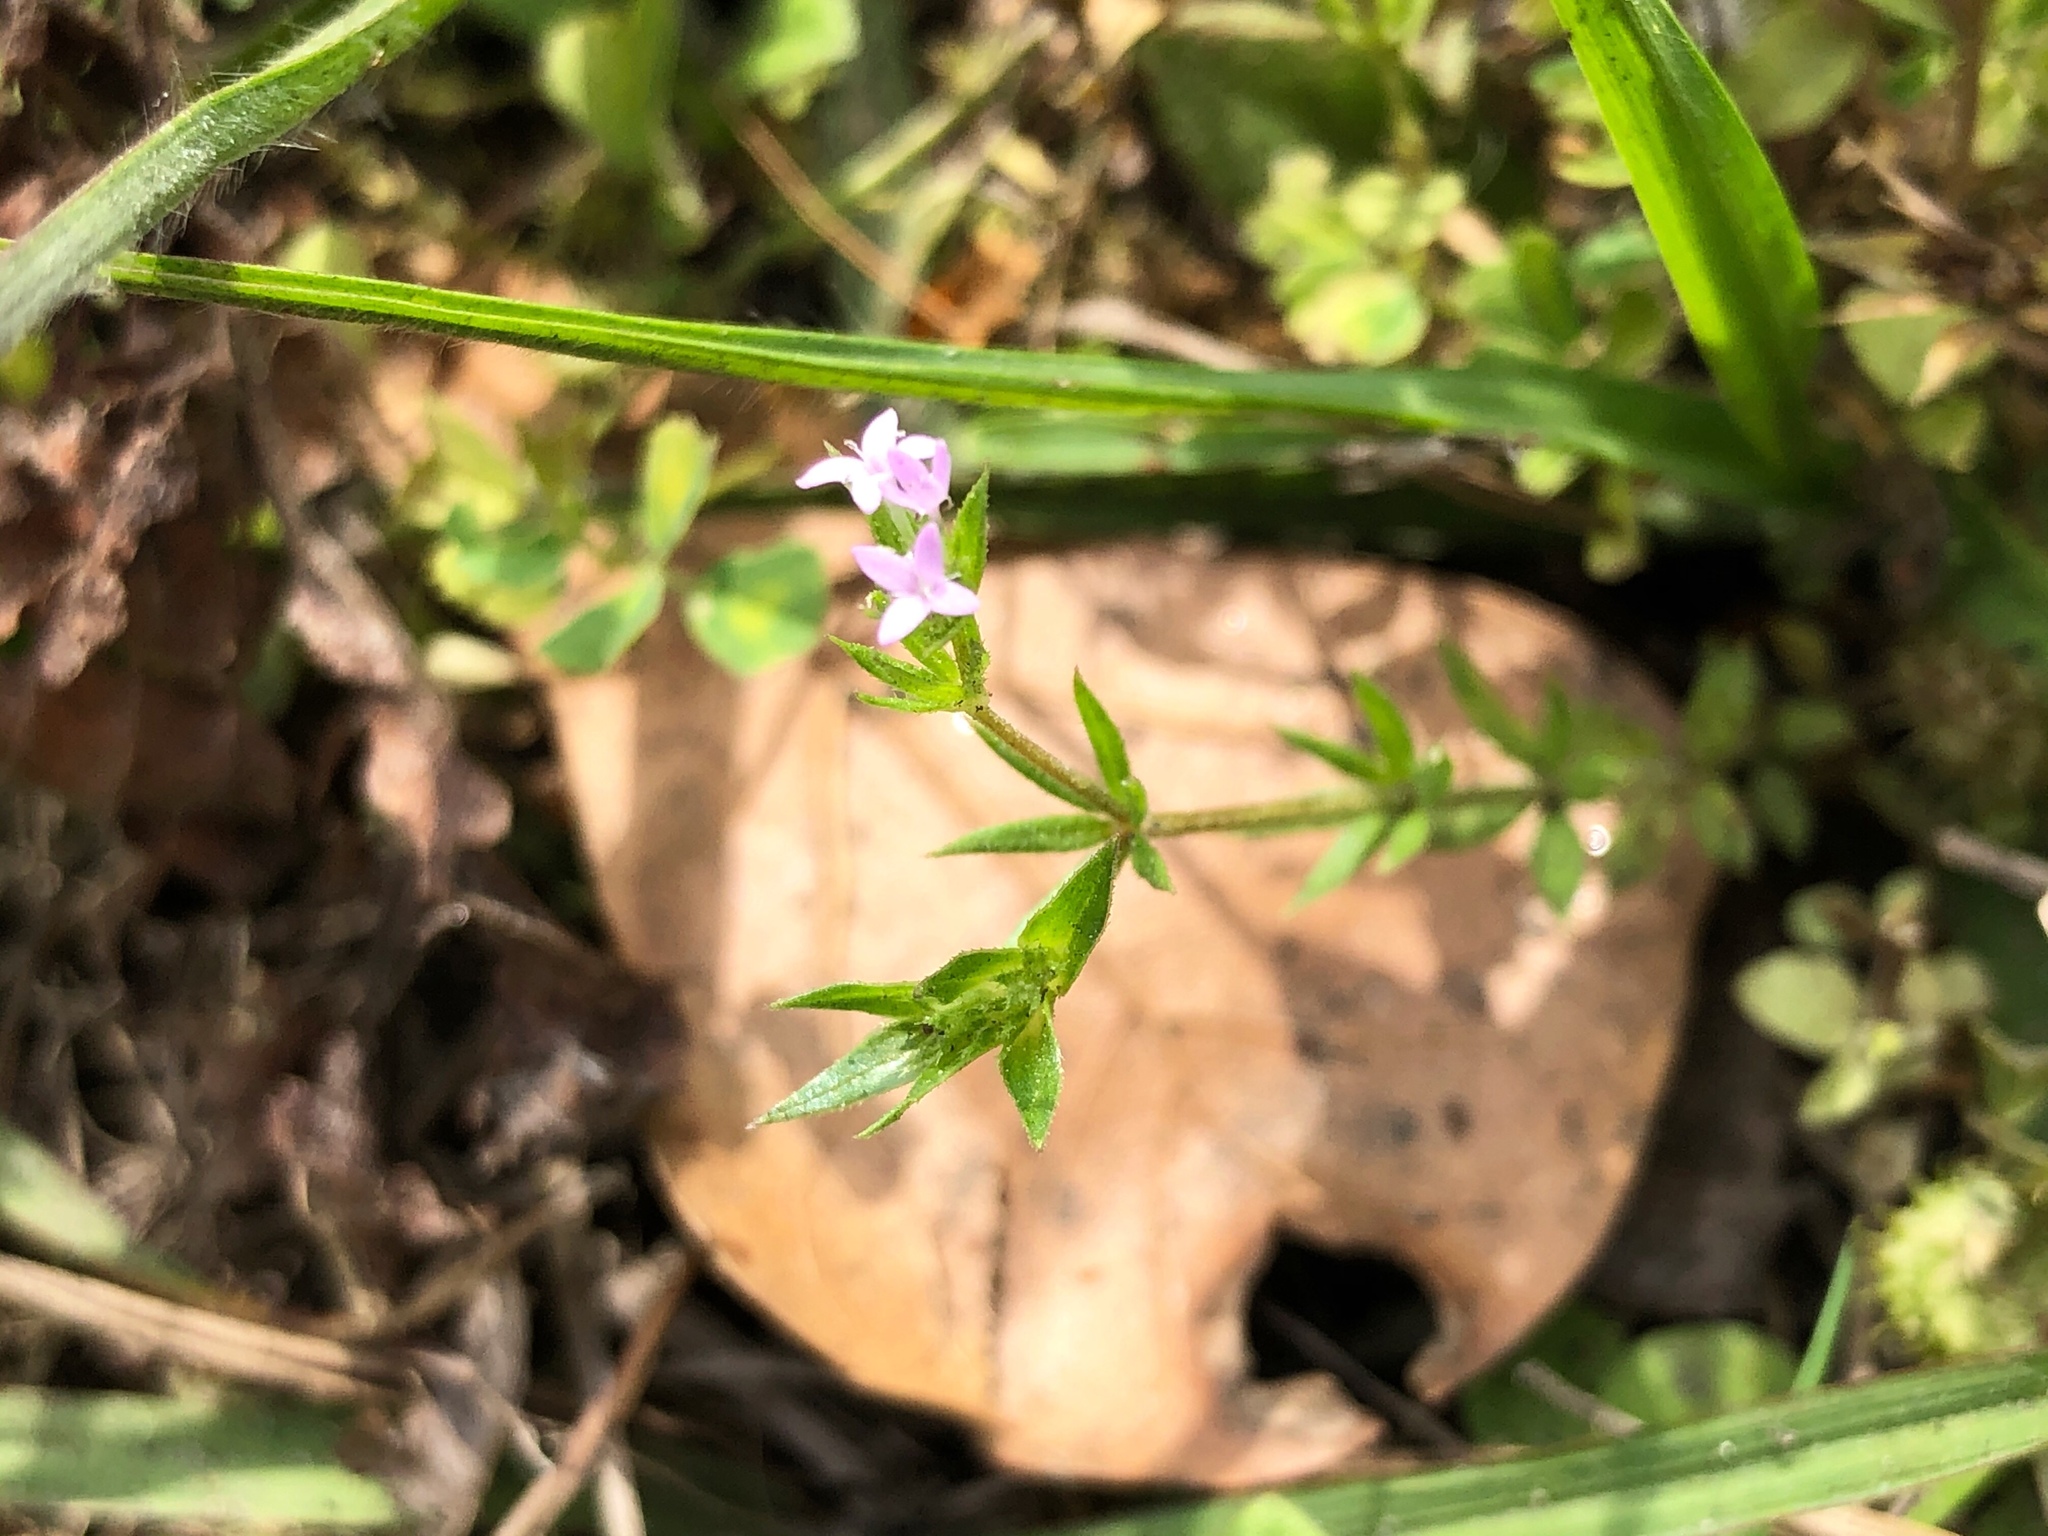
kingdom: Plantae
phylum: Tracheophyta
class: Magnoliopsida
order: Gentianales
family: Rubiaceae
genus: Sherardia
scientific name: Sherardia arvensis
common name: Field madder
